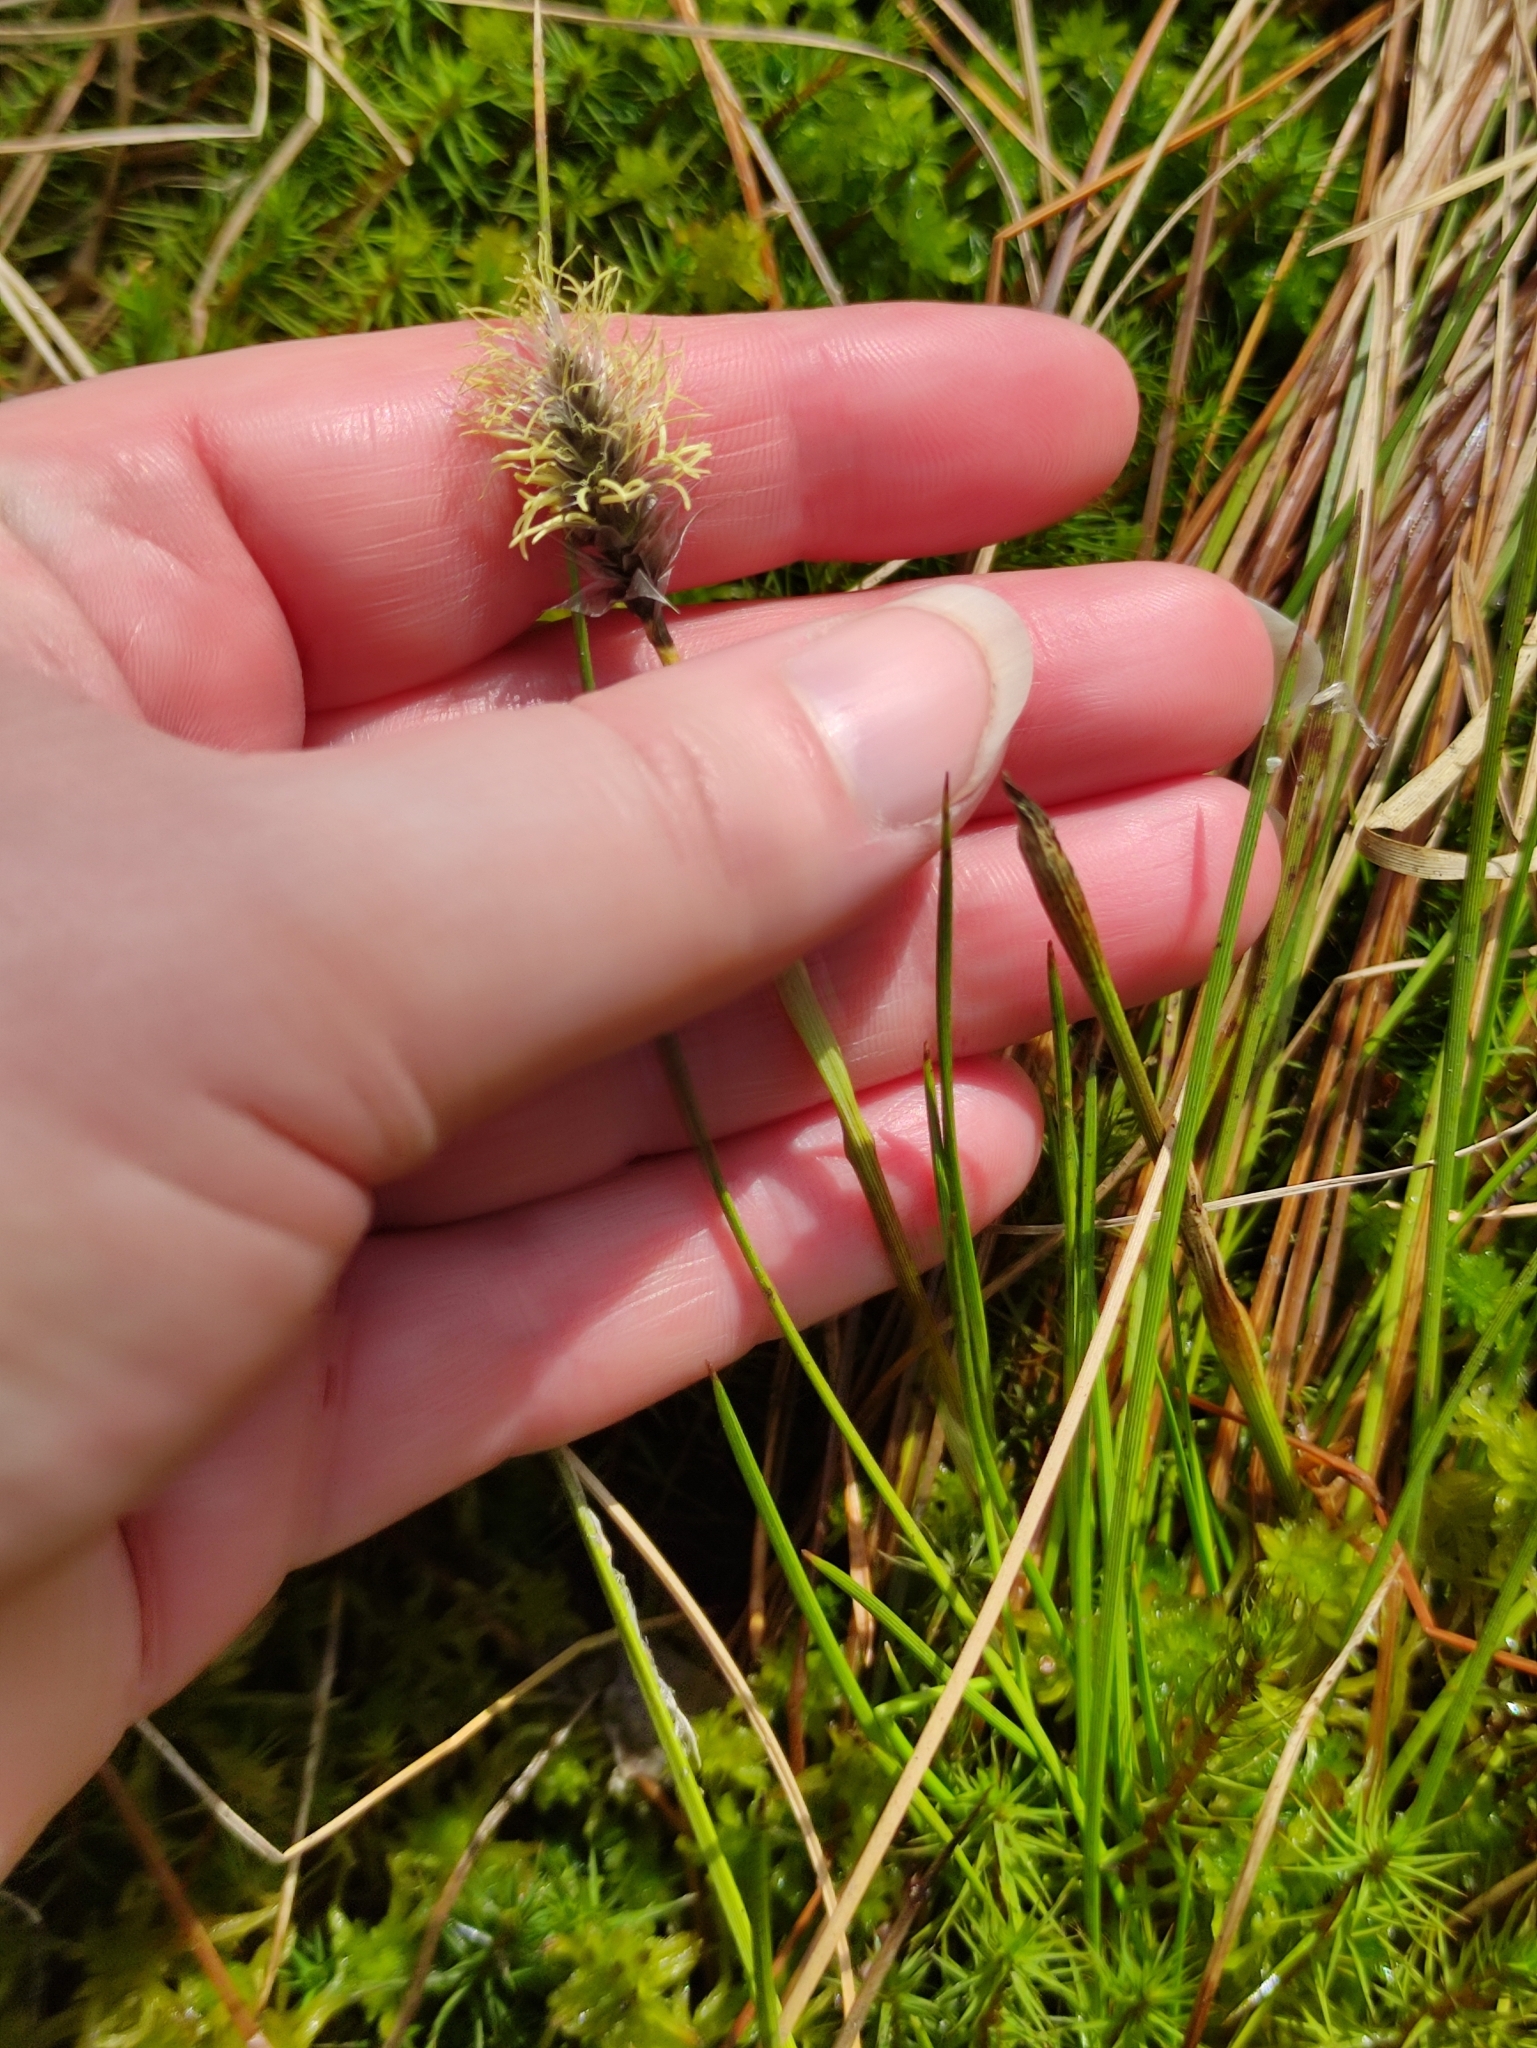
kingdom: Plantae
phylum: Tracheophyta
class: Liliopsida
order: Poales
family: Cyperaceae
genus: Eriophorum
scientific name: Eriophorum vaginatum
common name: Hare's-tail cottongrass
